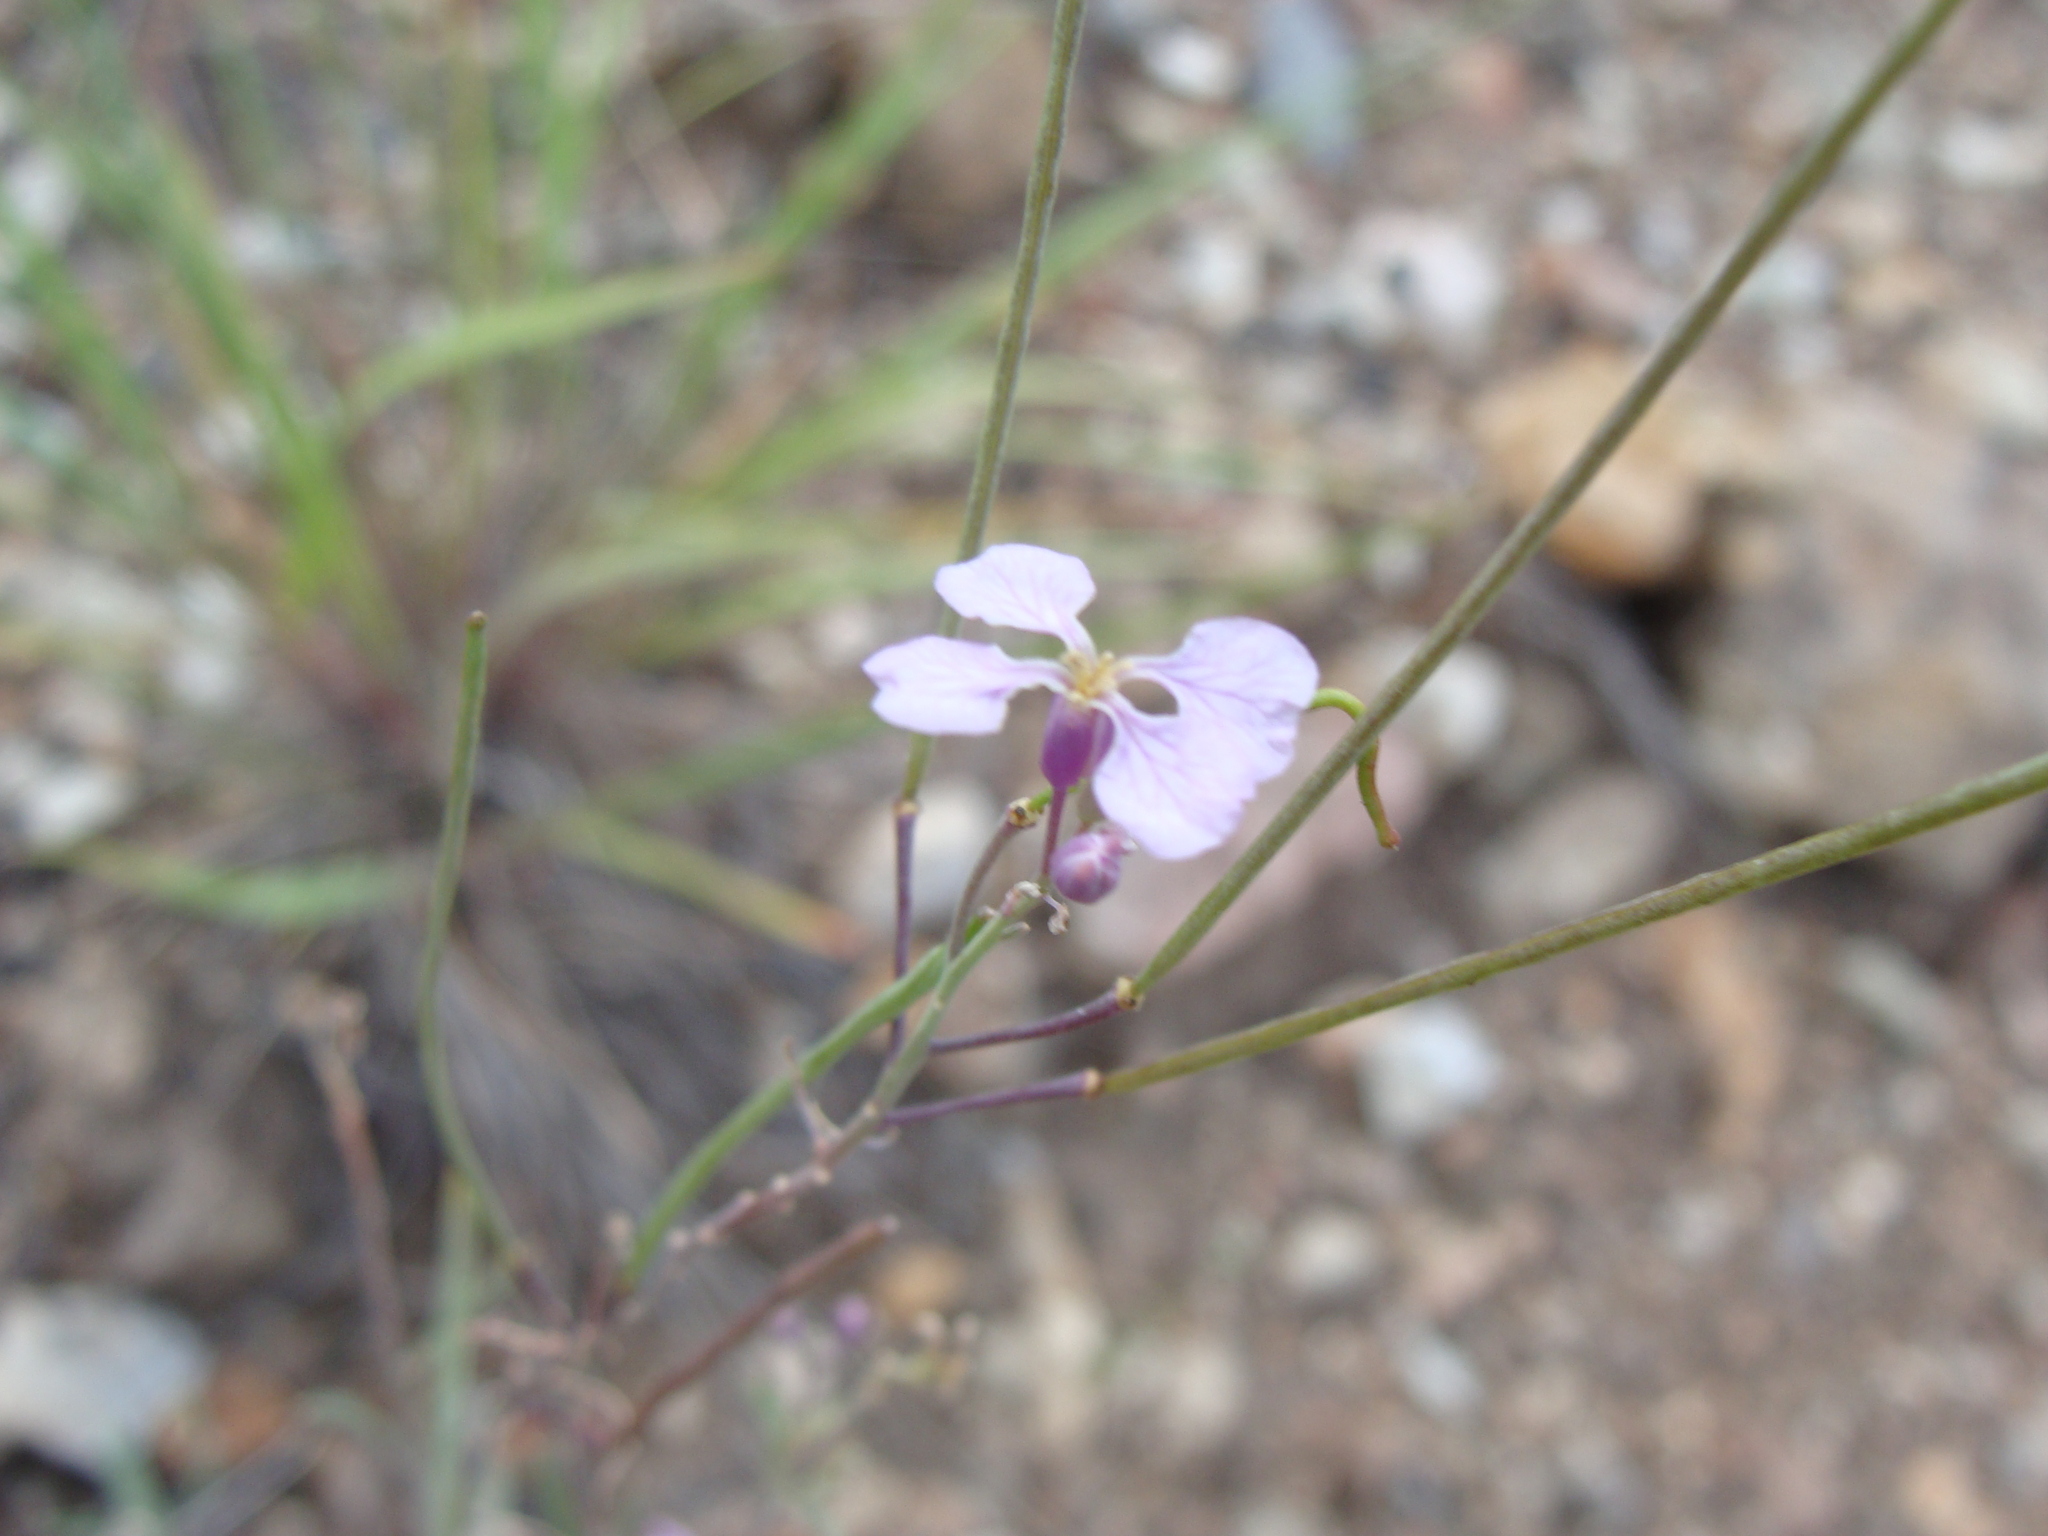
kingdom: Plantae
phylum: Tracheophyta
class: Magnoliopsida
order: Brassicales
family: Brassicaceae
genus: Hesperidanthus
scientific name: Hesperidanthus linearifolius
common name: Slim-leaf plains mustard
